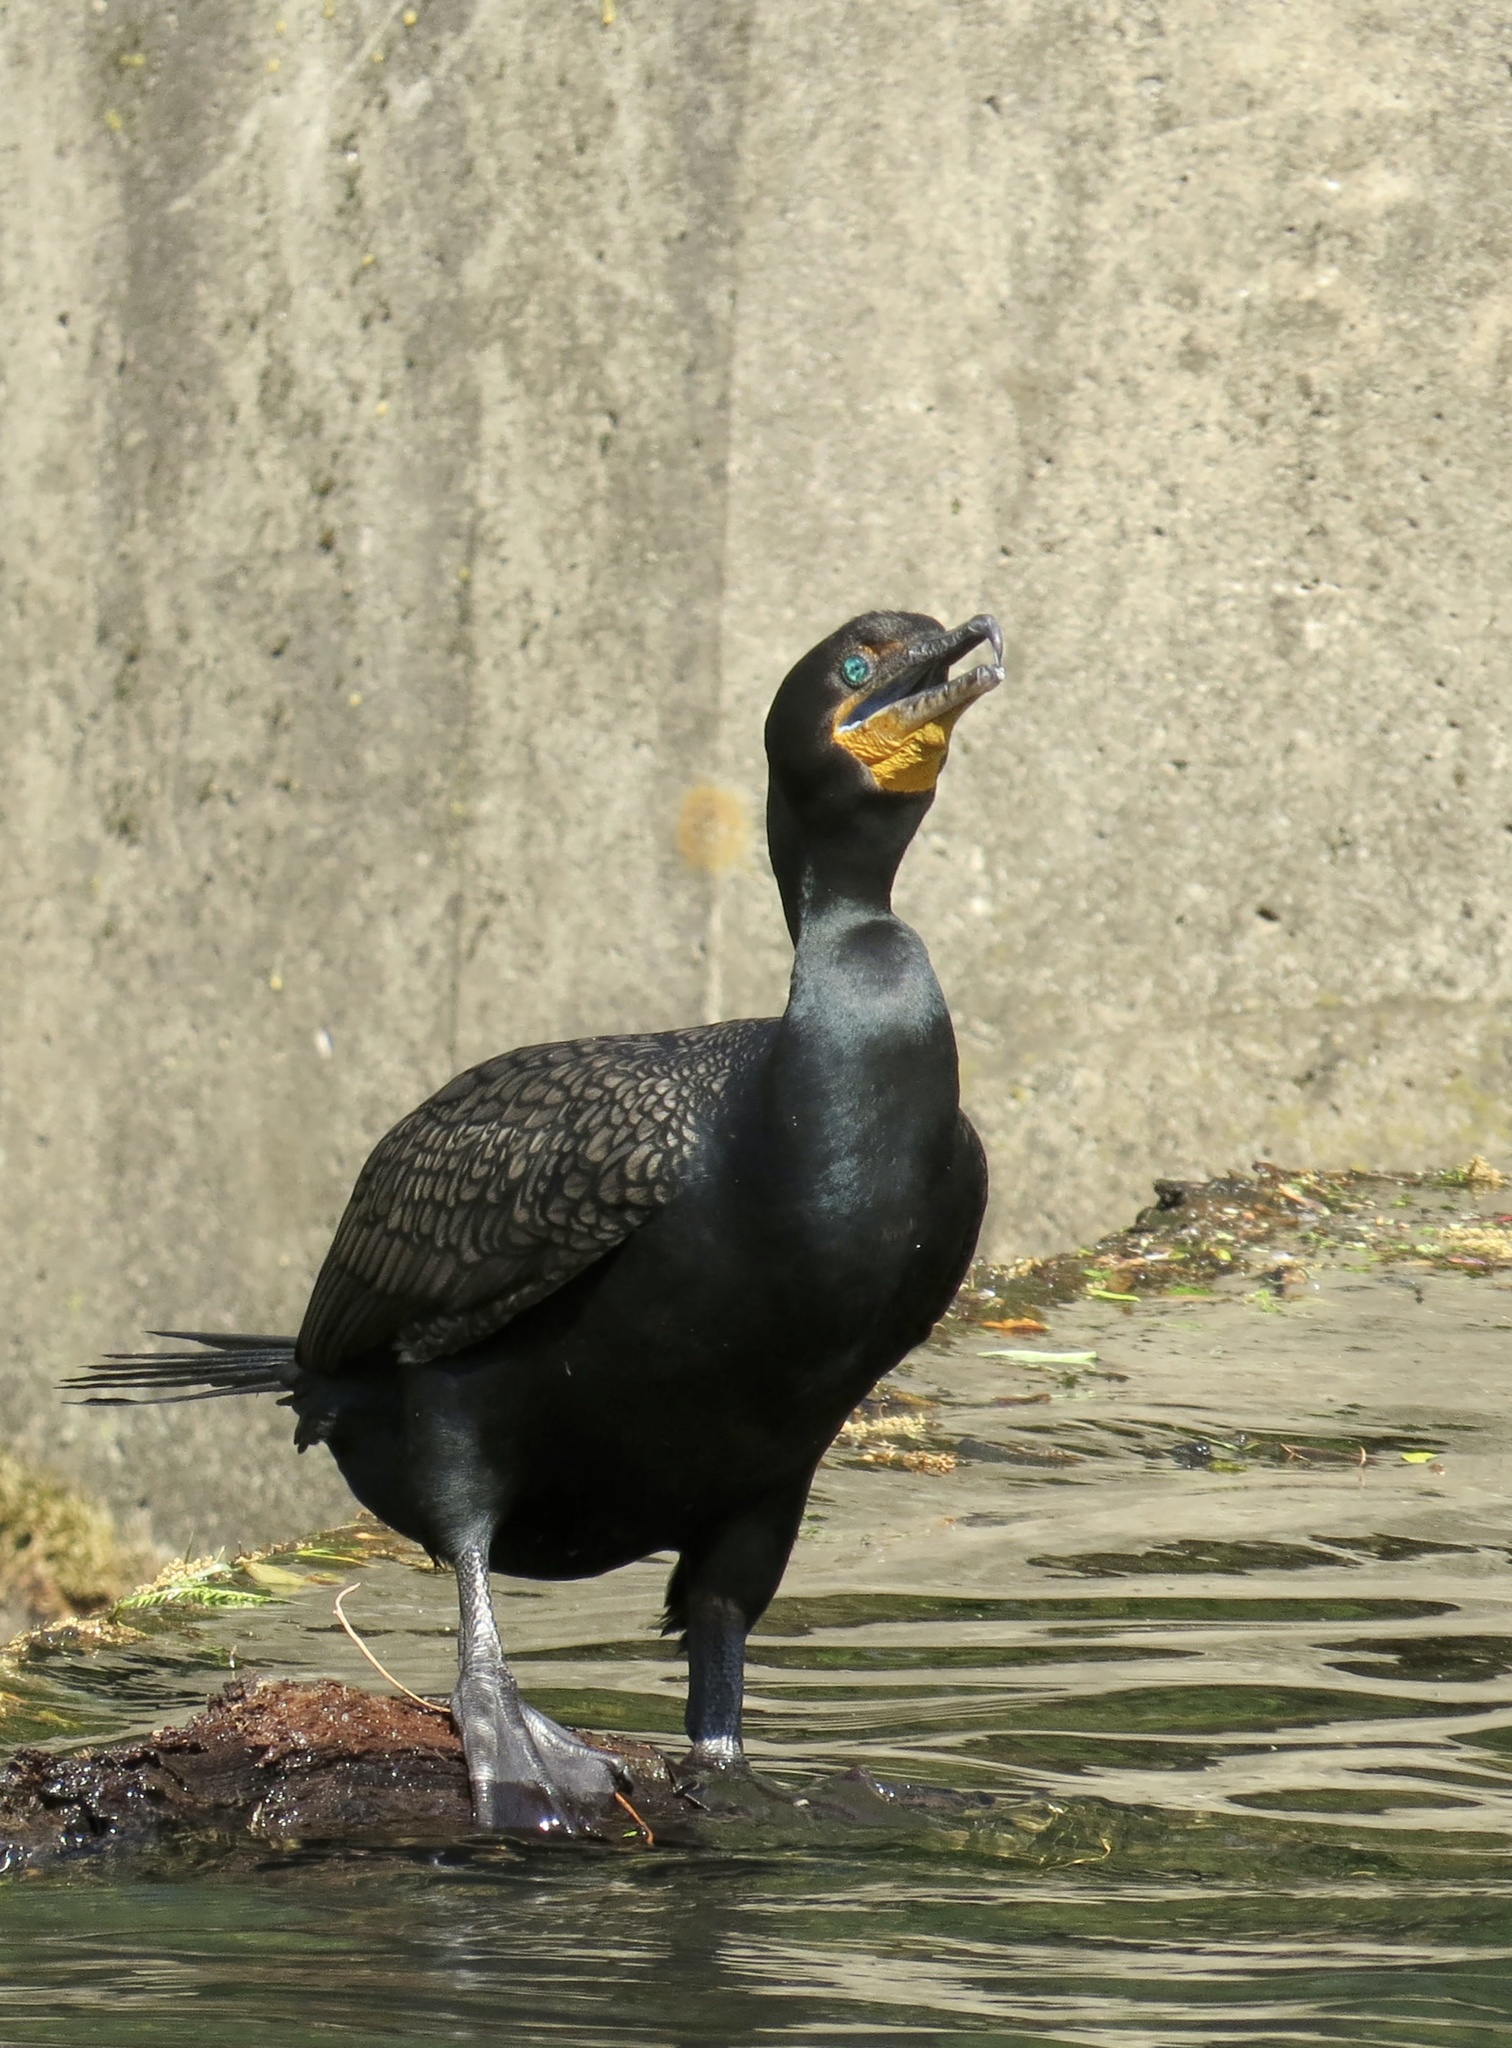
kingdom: Animalia
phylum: Chordata
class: Aves
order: Suliformes
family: Phalacrocoracidae
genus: Phalacrocorax
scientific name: Phalacrocorax auritus
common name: Double-crested cormorant
